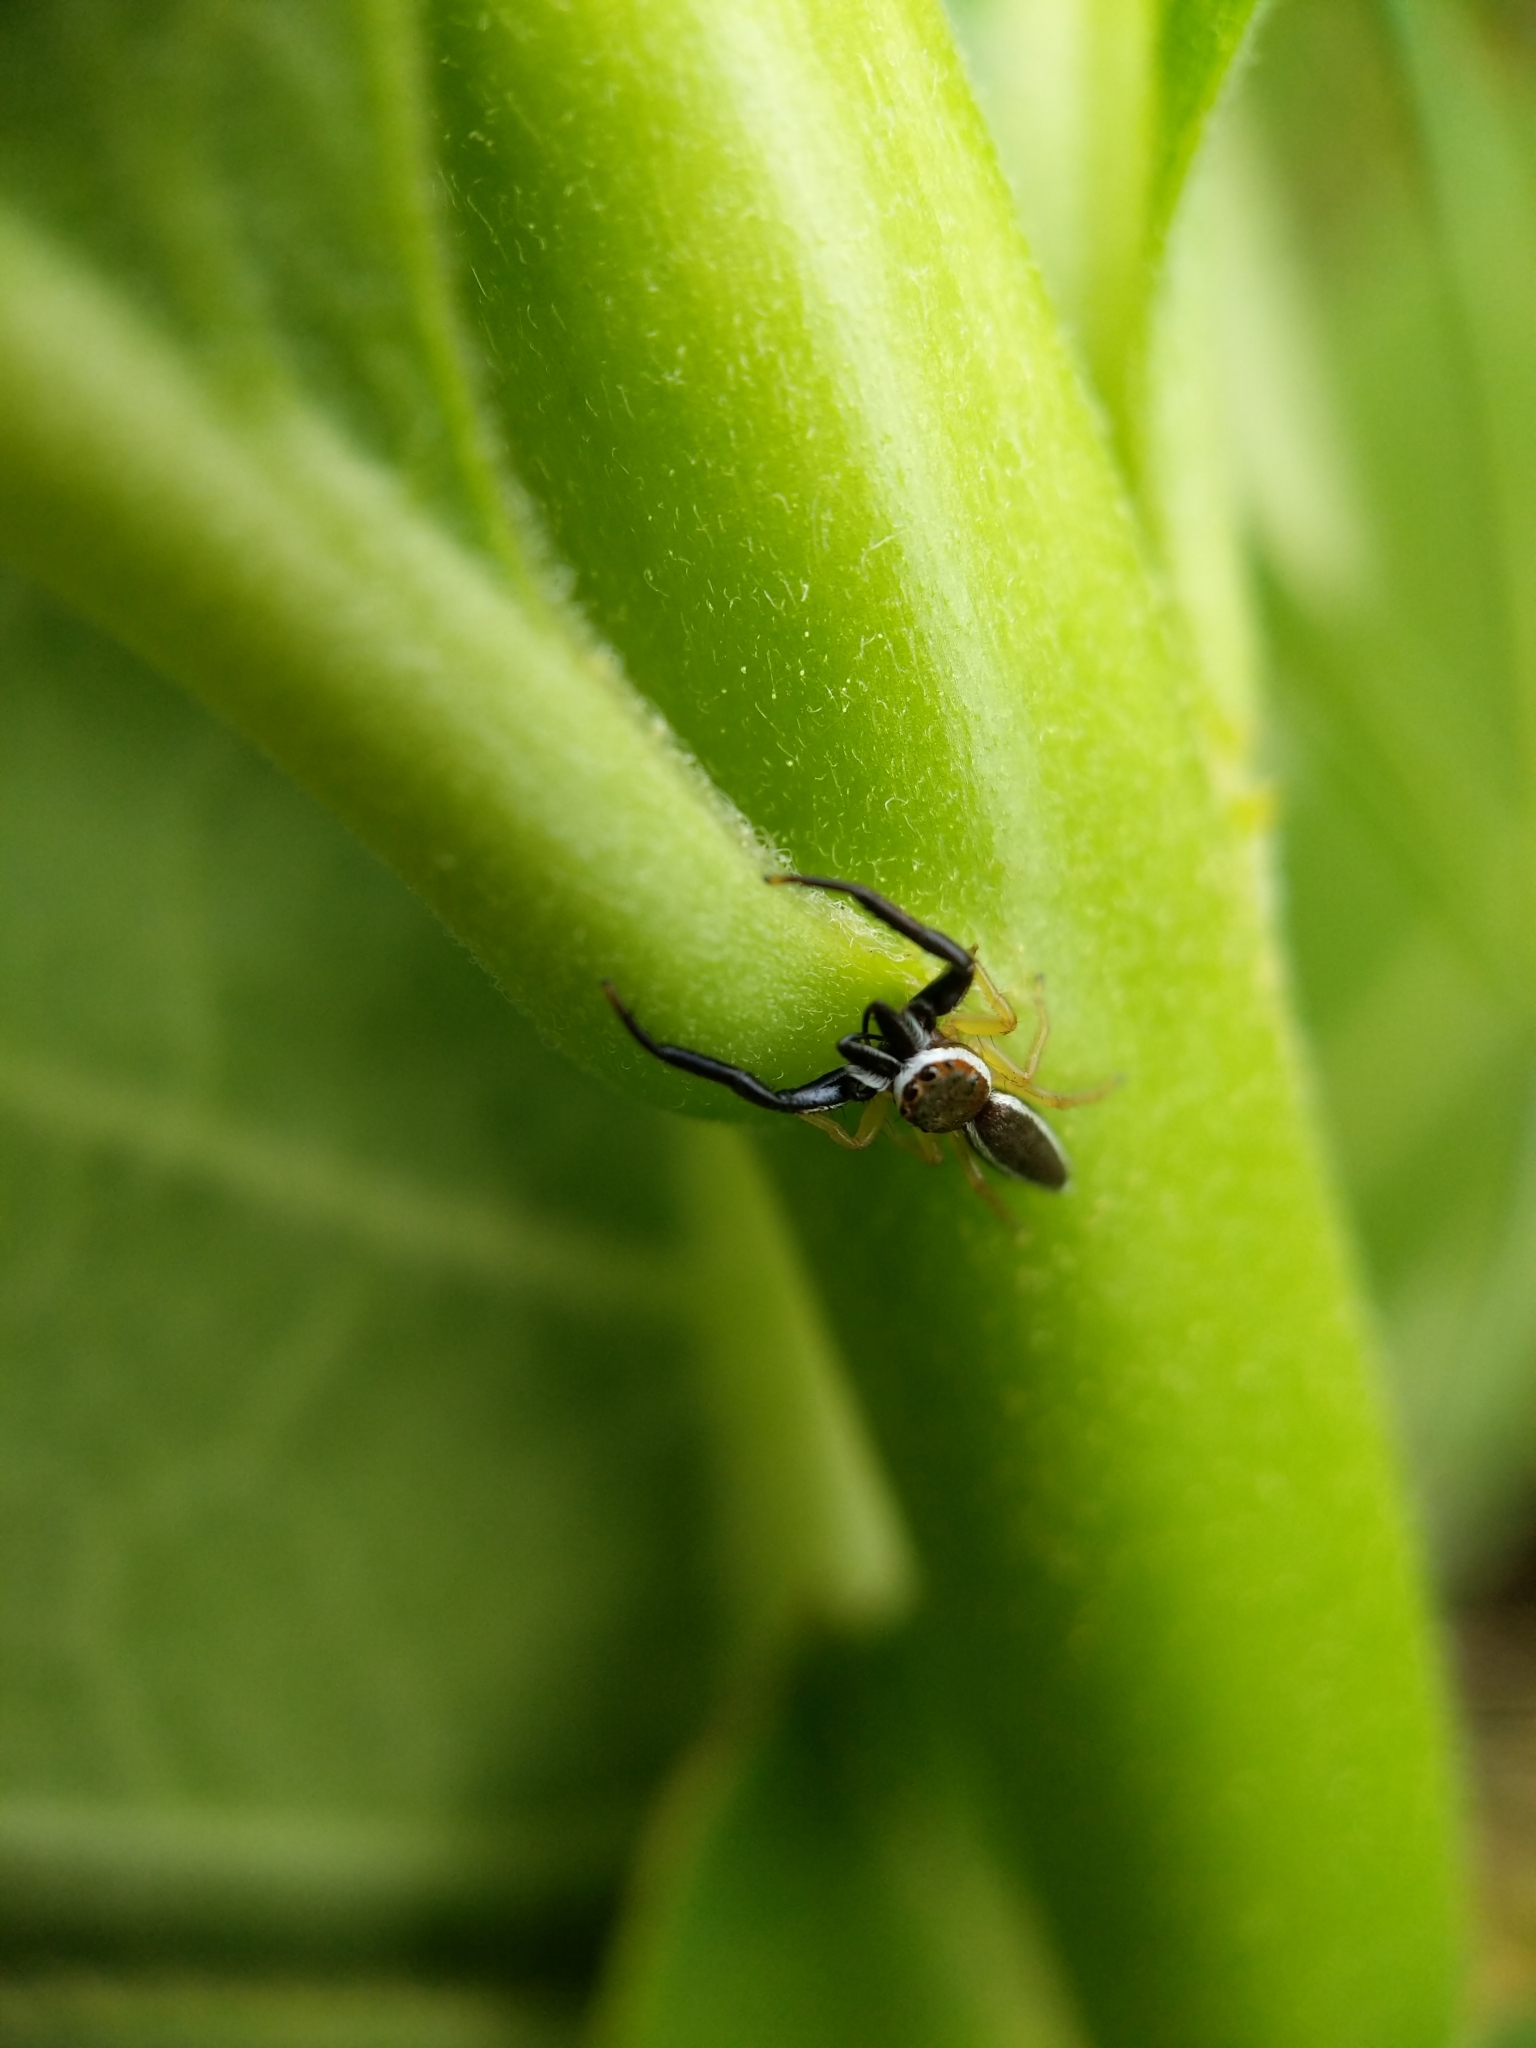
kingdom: Animalia
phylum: Arthropoda
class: Arachnida
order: Araneae
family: Salticidae
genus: Hentzia
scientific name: Hentzia palmarum
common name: Common hentz jumping spider
